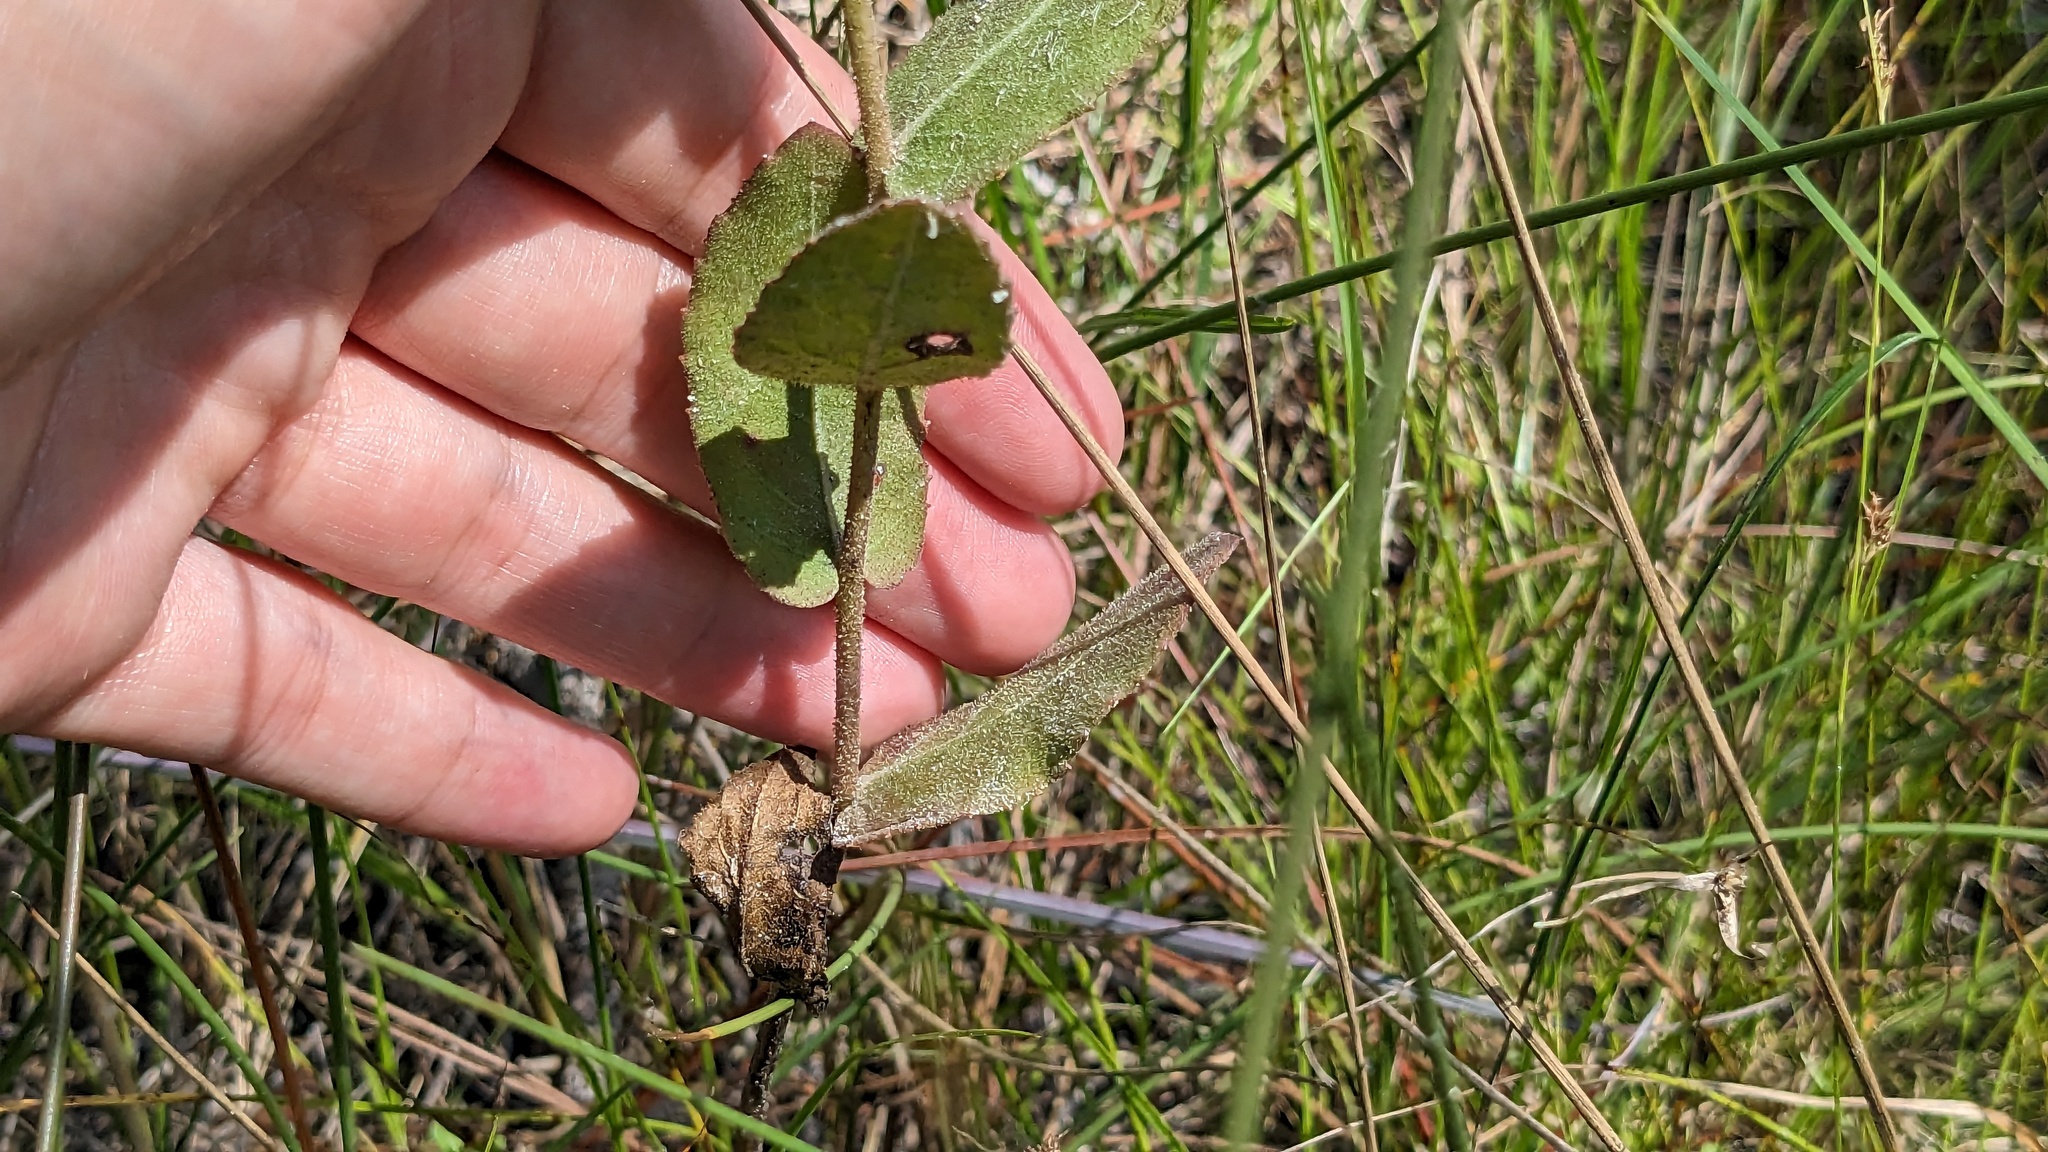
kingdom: Plantae
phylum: Tracheophyta
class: Magnoliopsida
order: Asterales
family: Asteraceae
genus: Pluchea
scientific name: Pluchea baccharis
